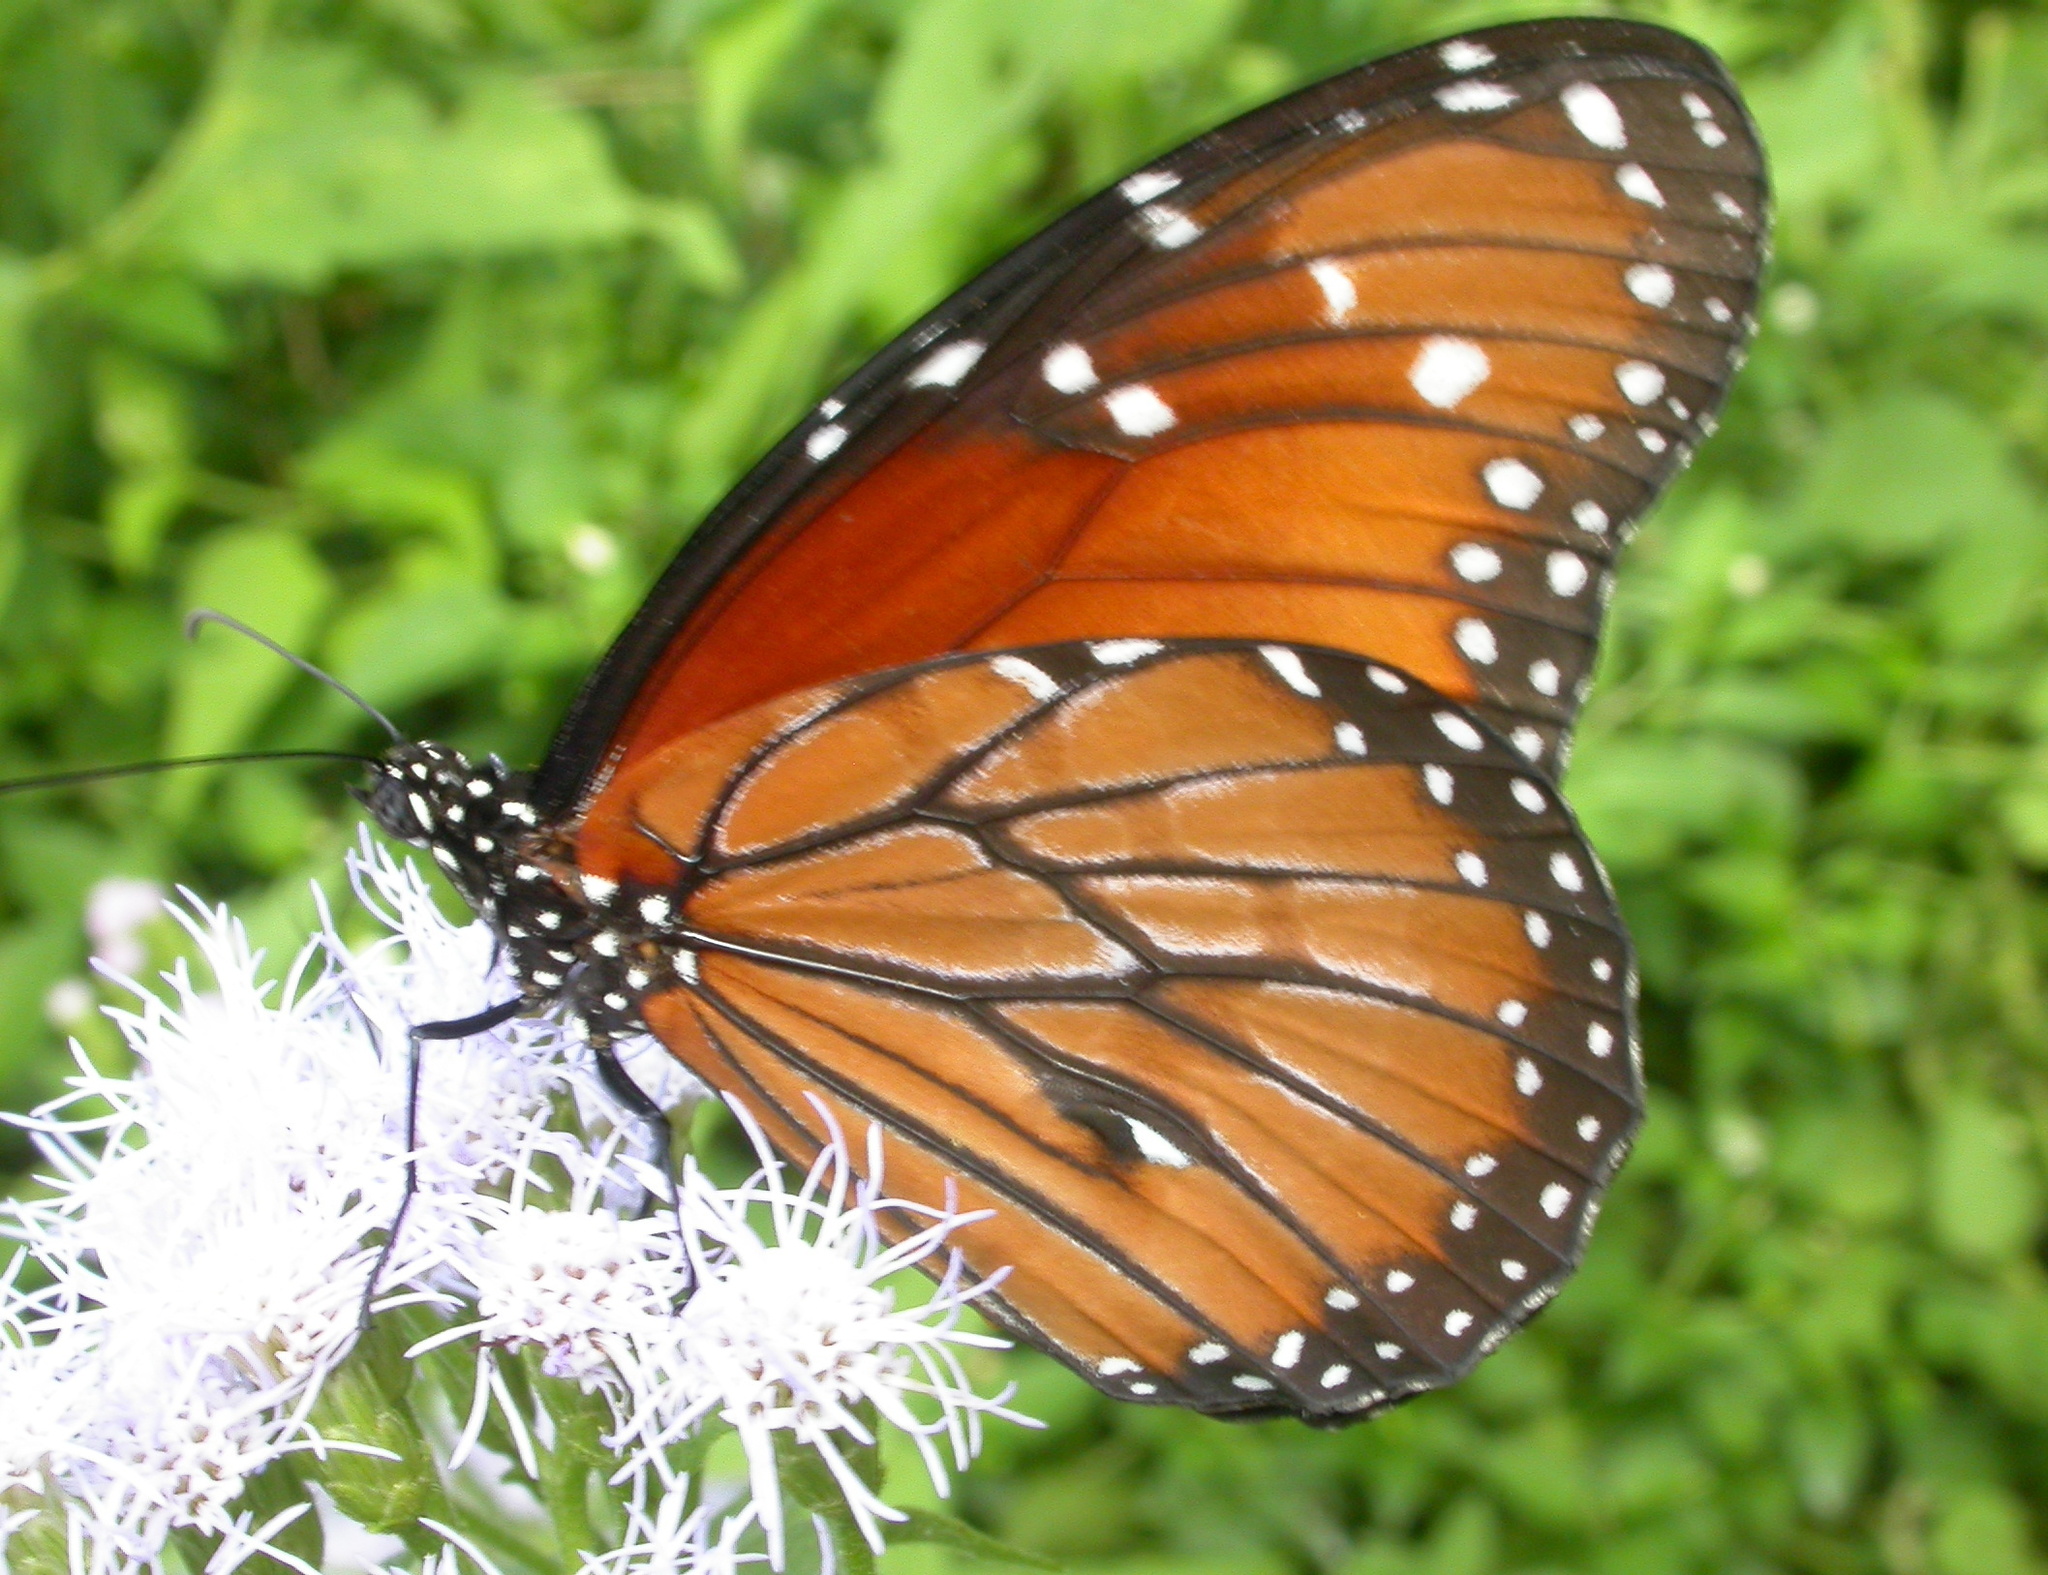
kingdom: Animalia
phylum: Arthropoda
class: Insecta
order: Lepidoptera
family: Nymphalidae
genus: Danaus
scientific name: Danaus eresimus
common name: Soldier
